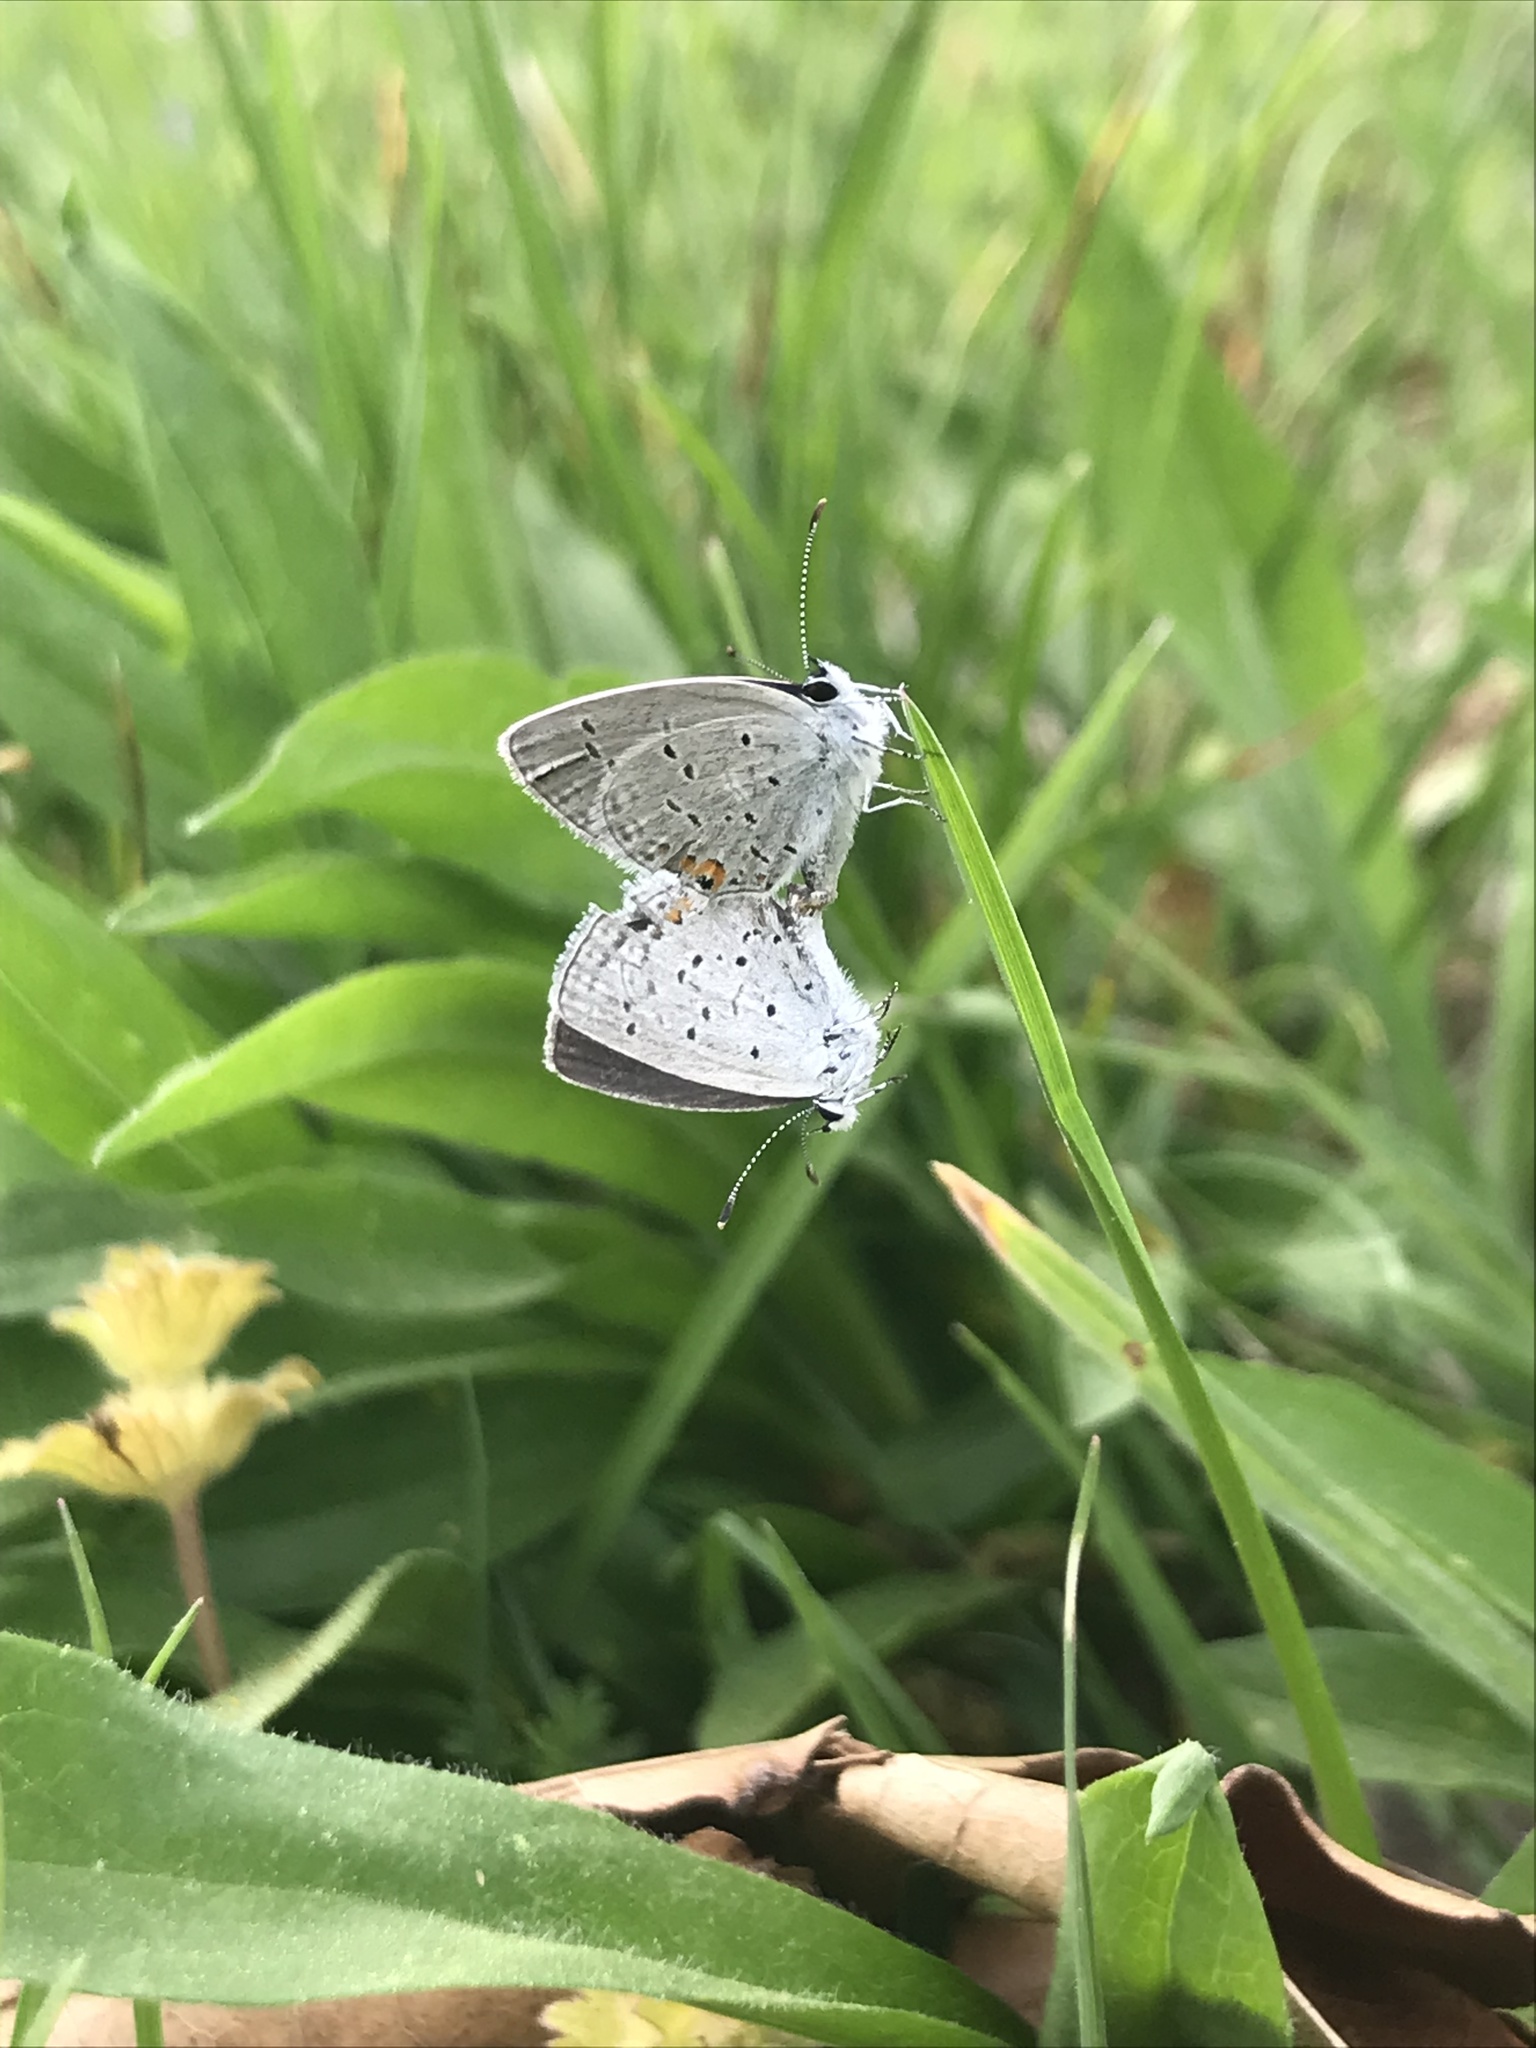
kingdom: Animalia
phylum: Arthropoda
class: Insecta
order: Lepidoptera
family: Lycaenidae
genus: Elkalyce
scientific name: Elkalyce comyntas
